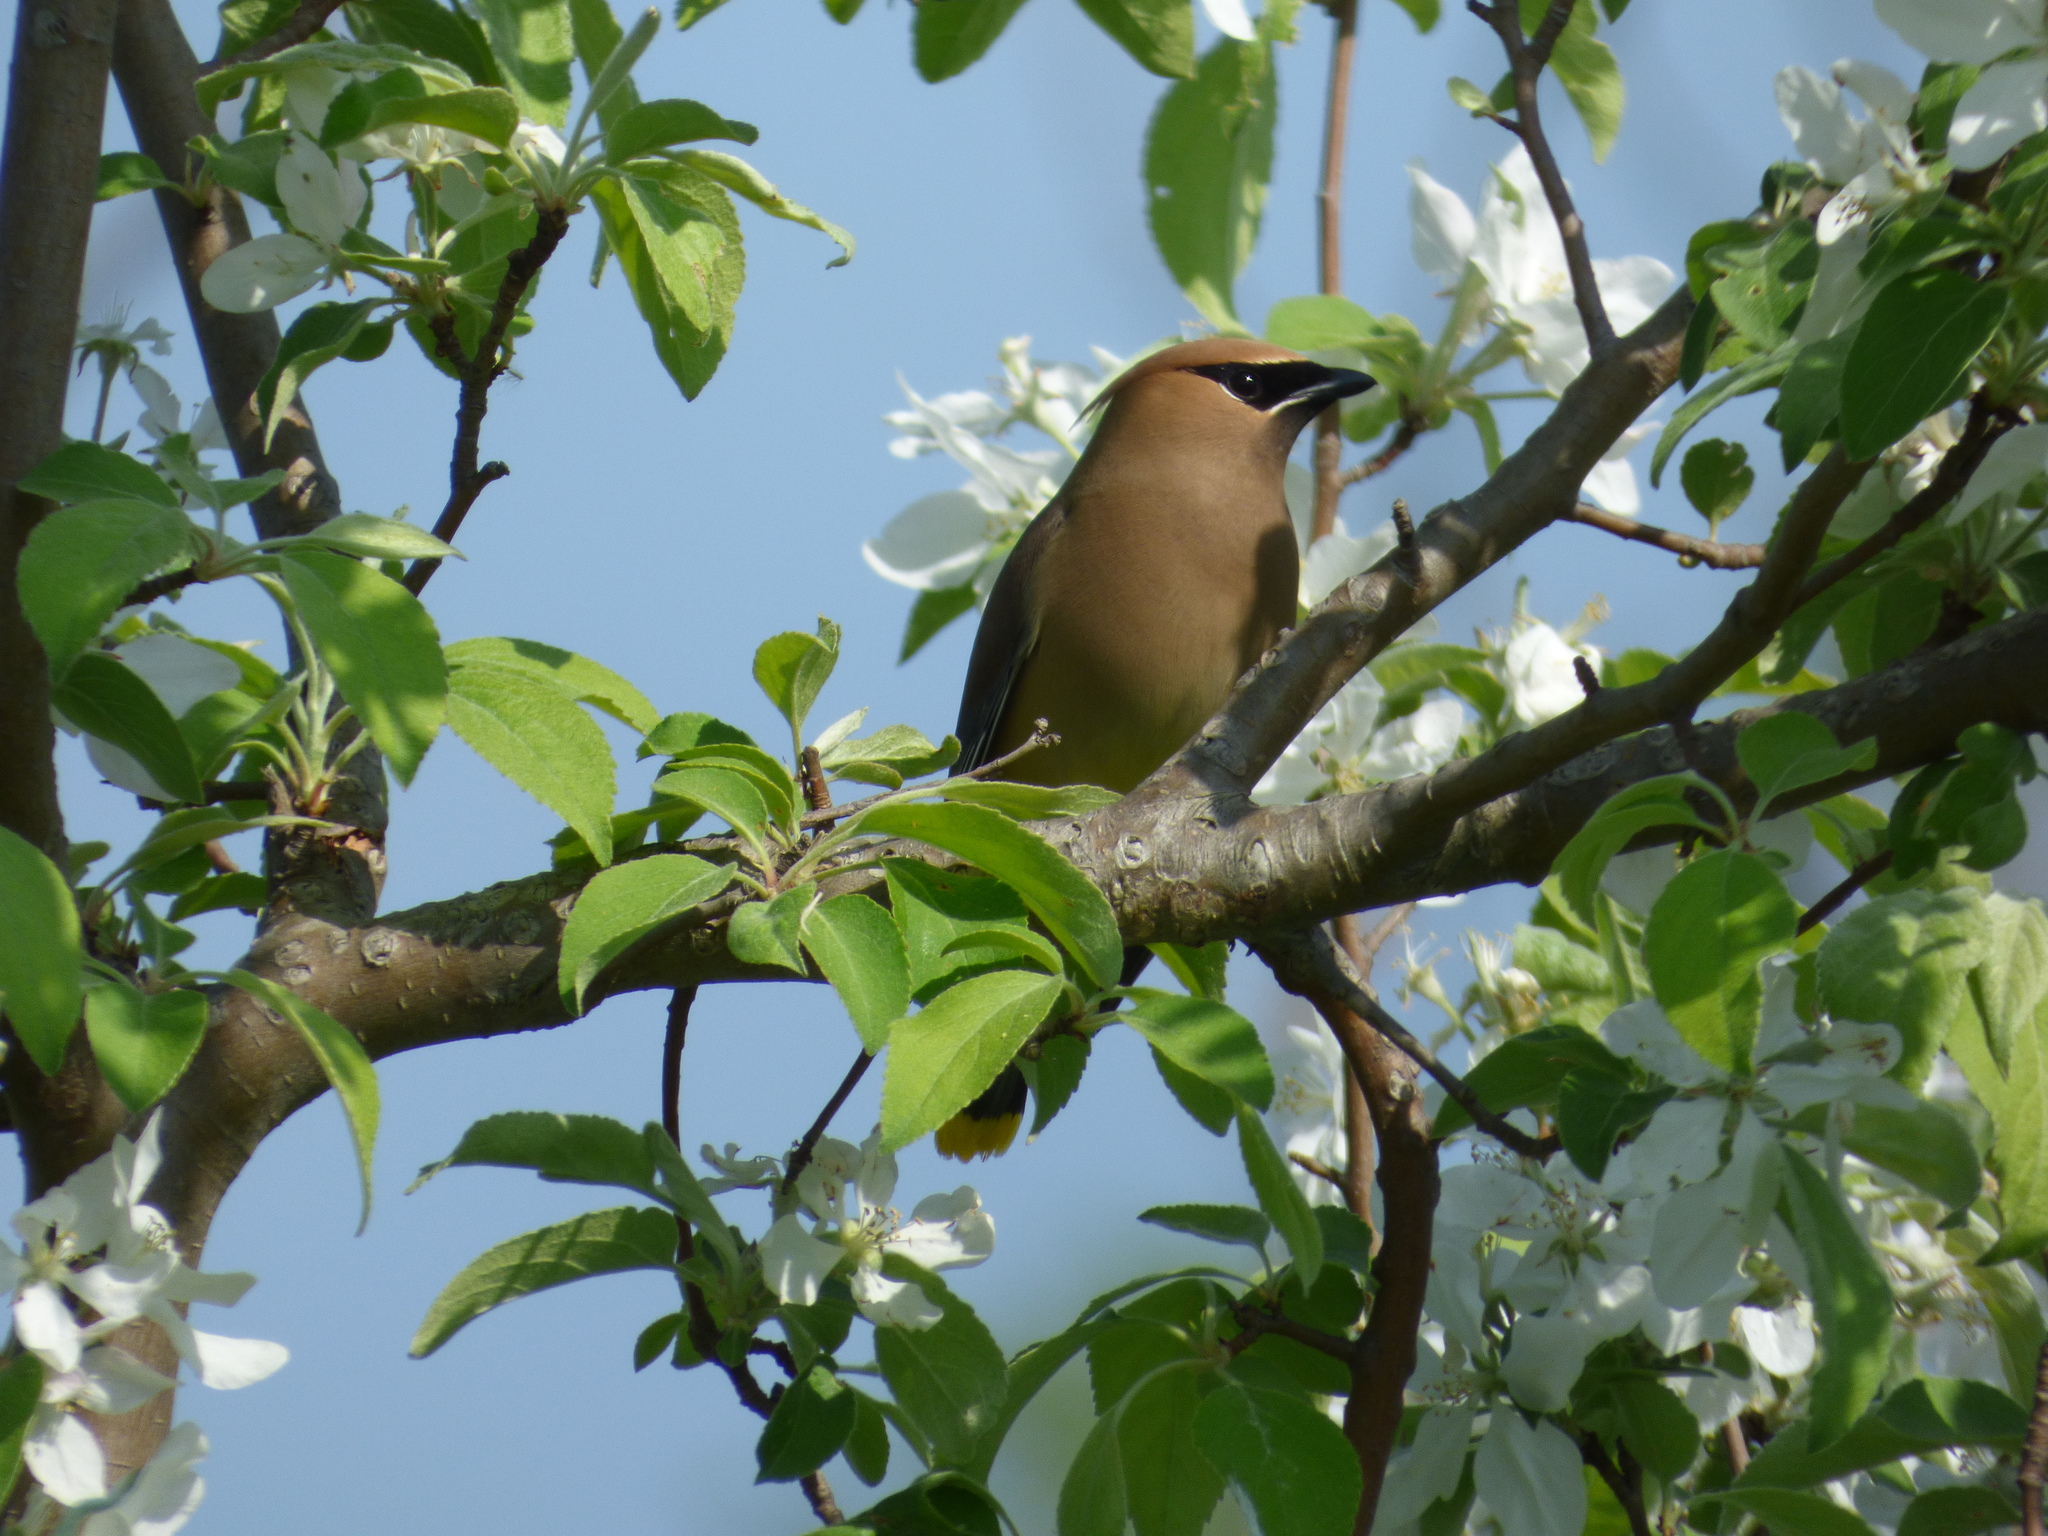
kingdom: Animalia
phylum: Chordata
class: Aves
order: Passeriformes
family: Bombycillidae
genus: Bombycilla
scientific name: Bombycilla cedrorum
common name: Cedar waxwing
